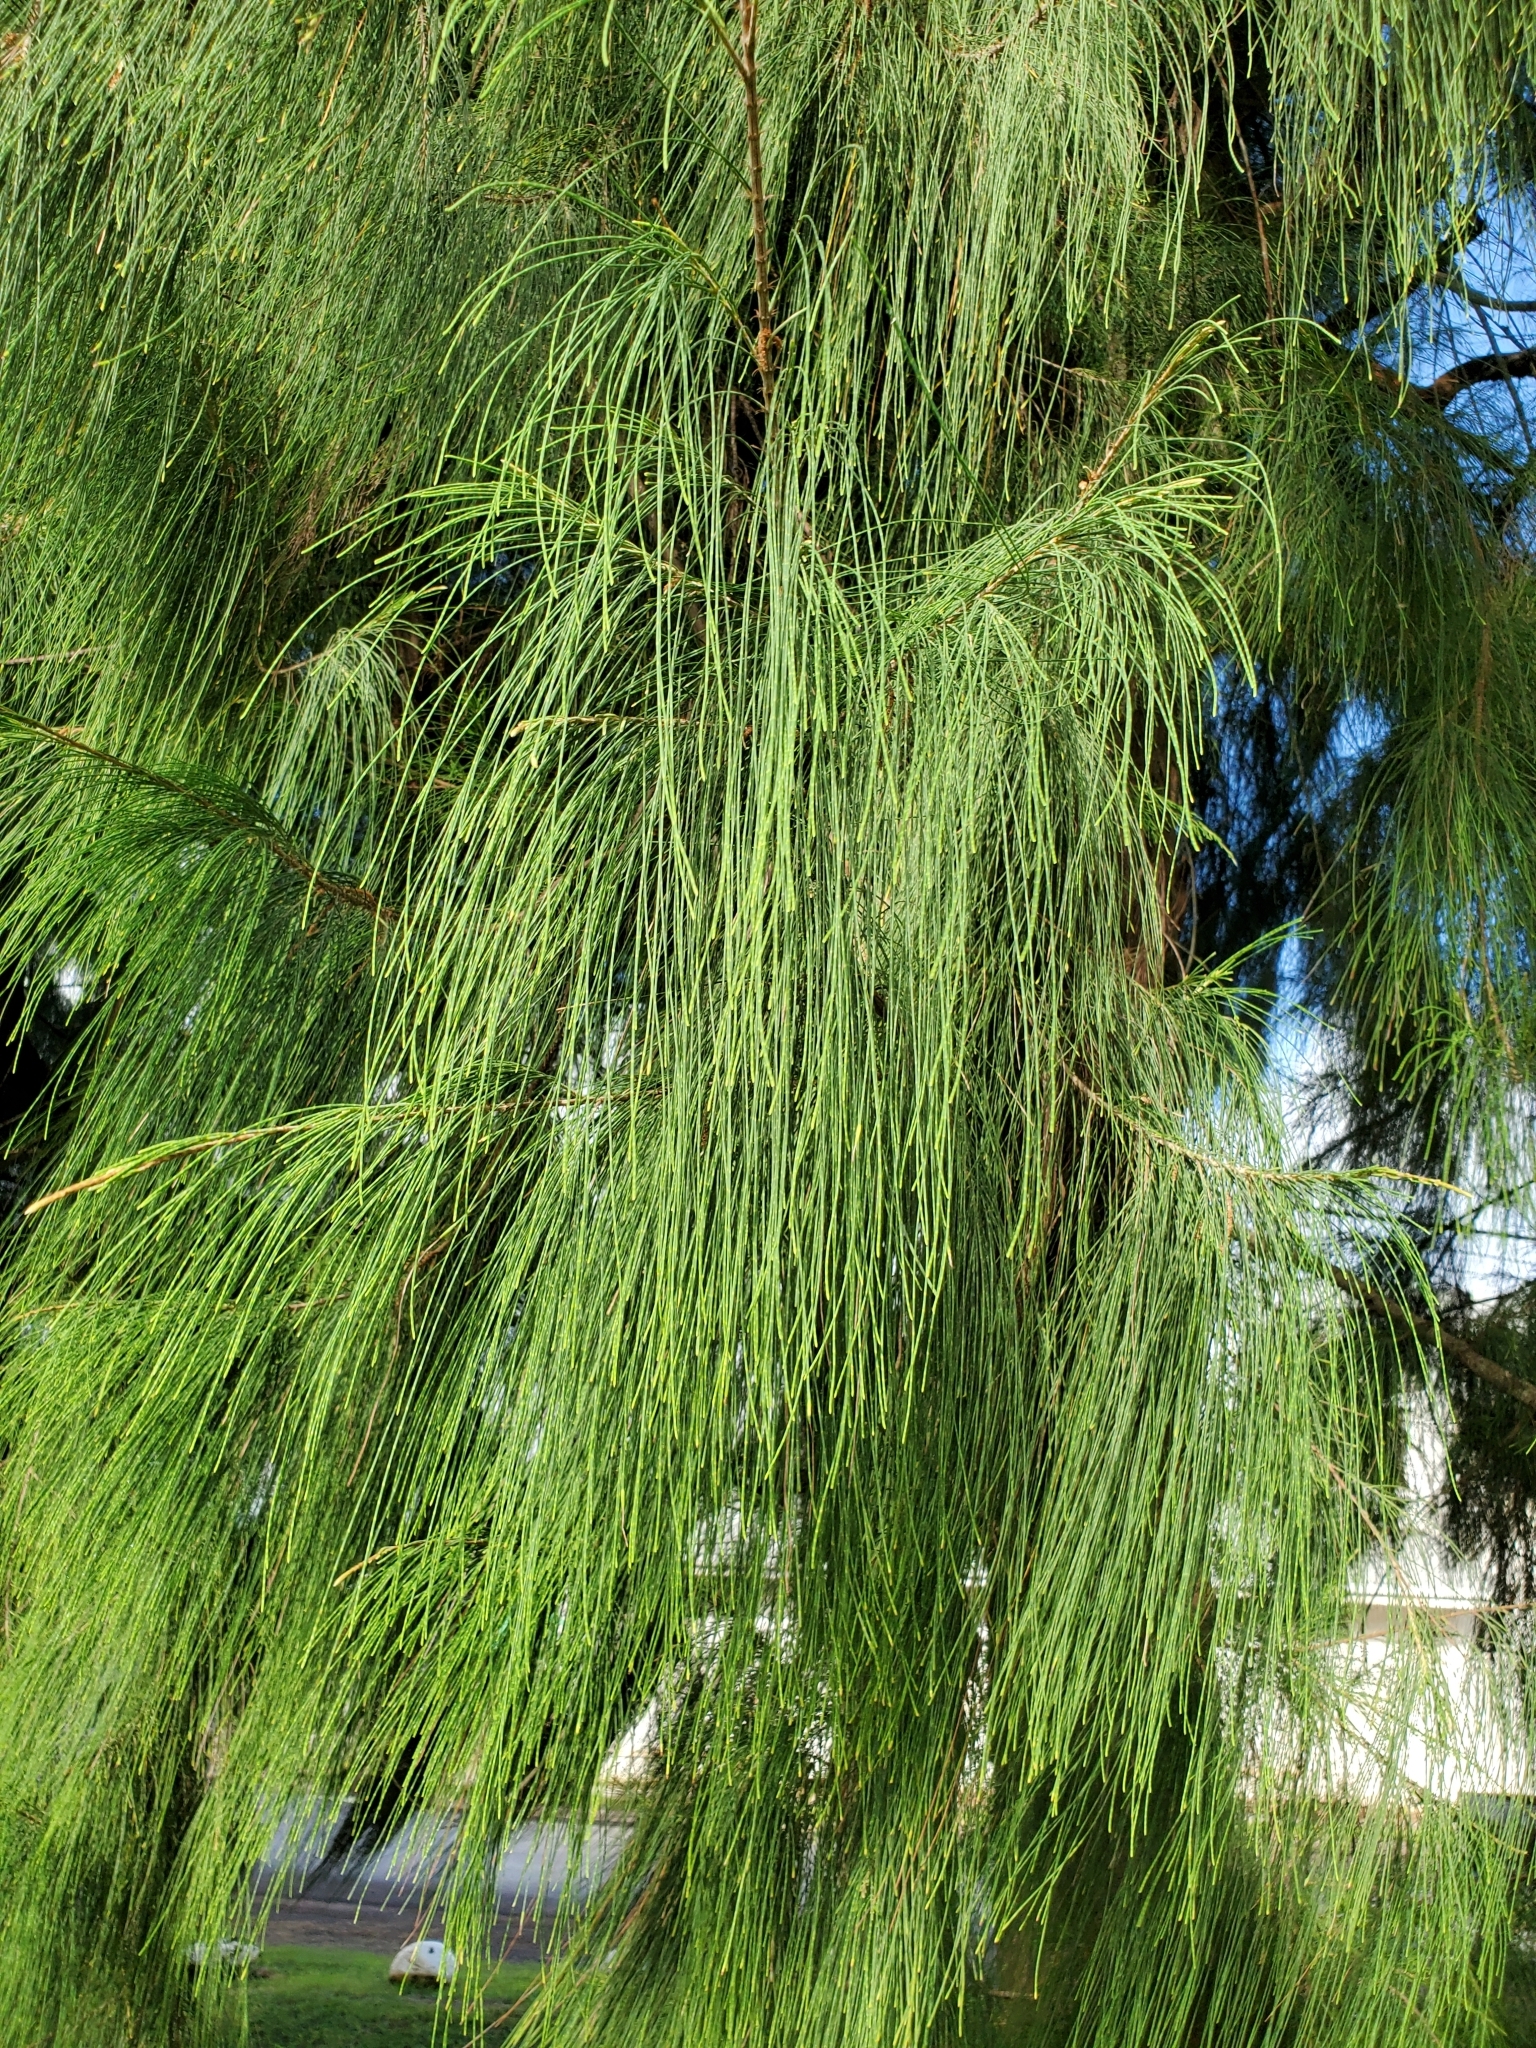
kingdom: Plantae
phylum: Tracheophyta
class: Magnoliopsida
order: Fagales
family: Casuarinaceae
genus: Casuarina
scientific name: Casuarina equisetifolia
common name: Beach sheoak
